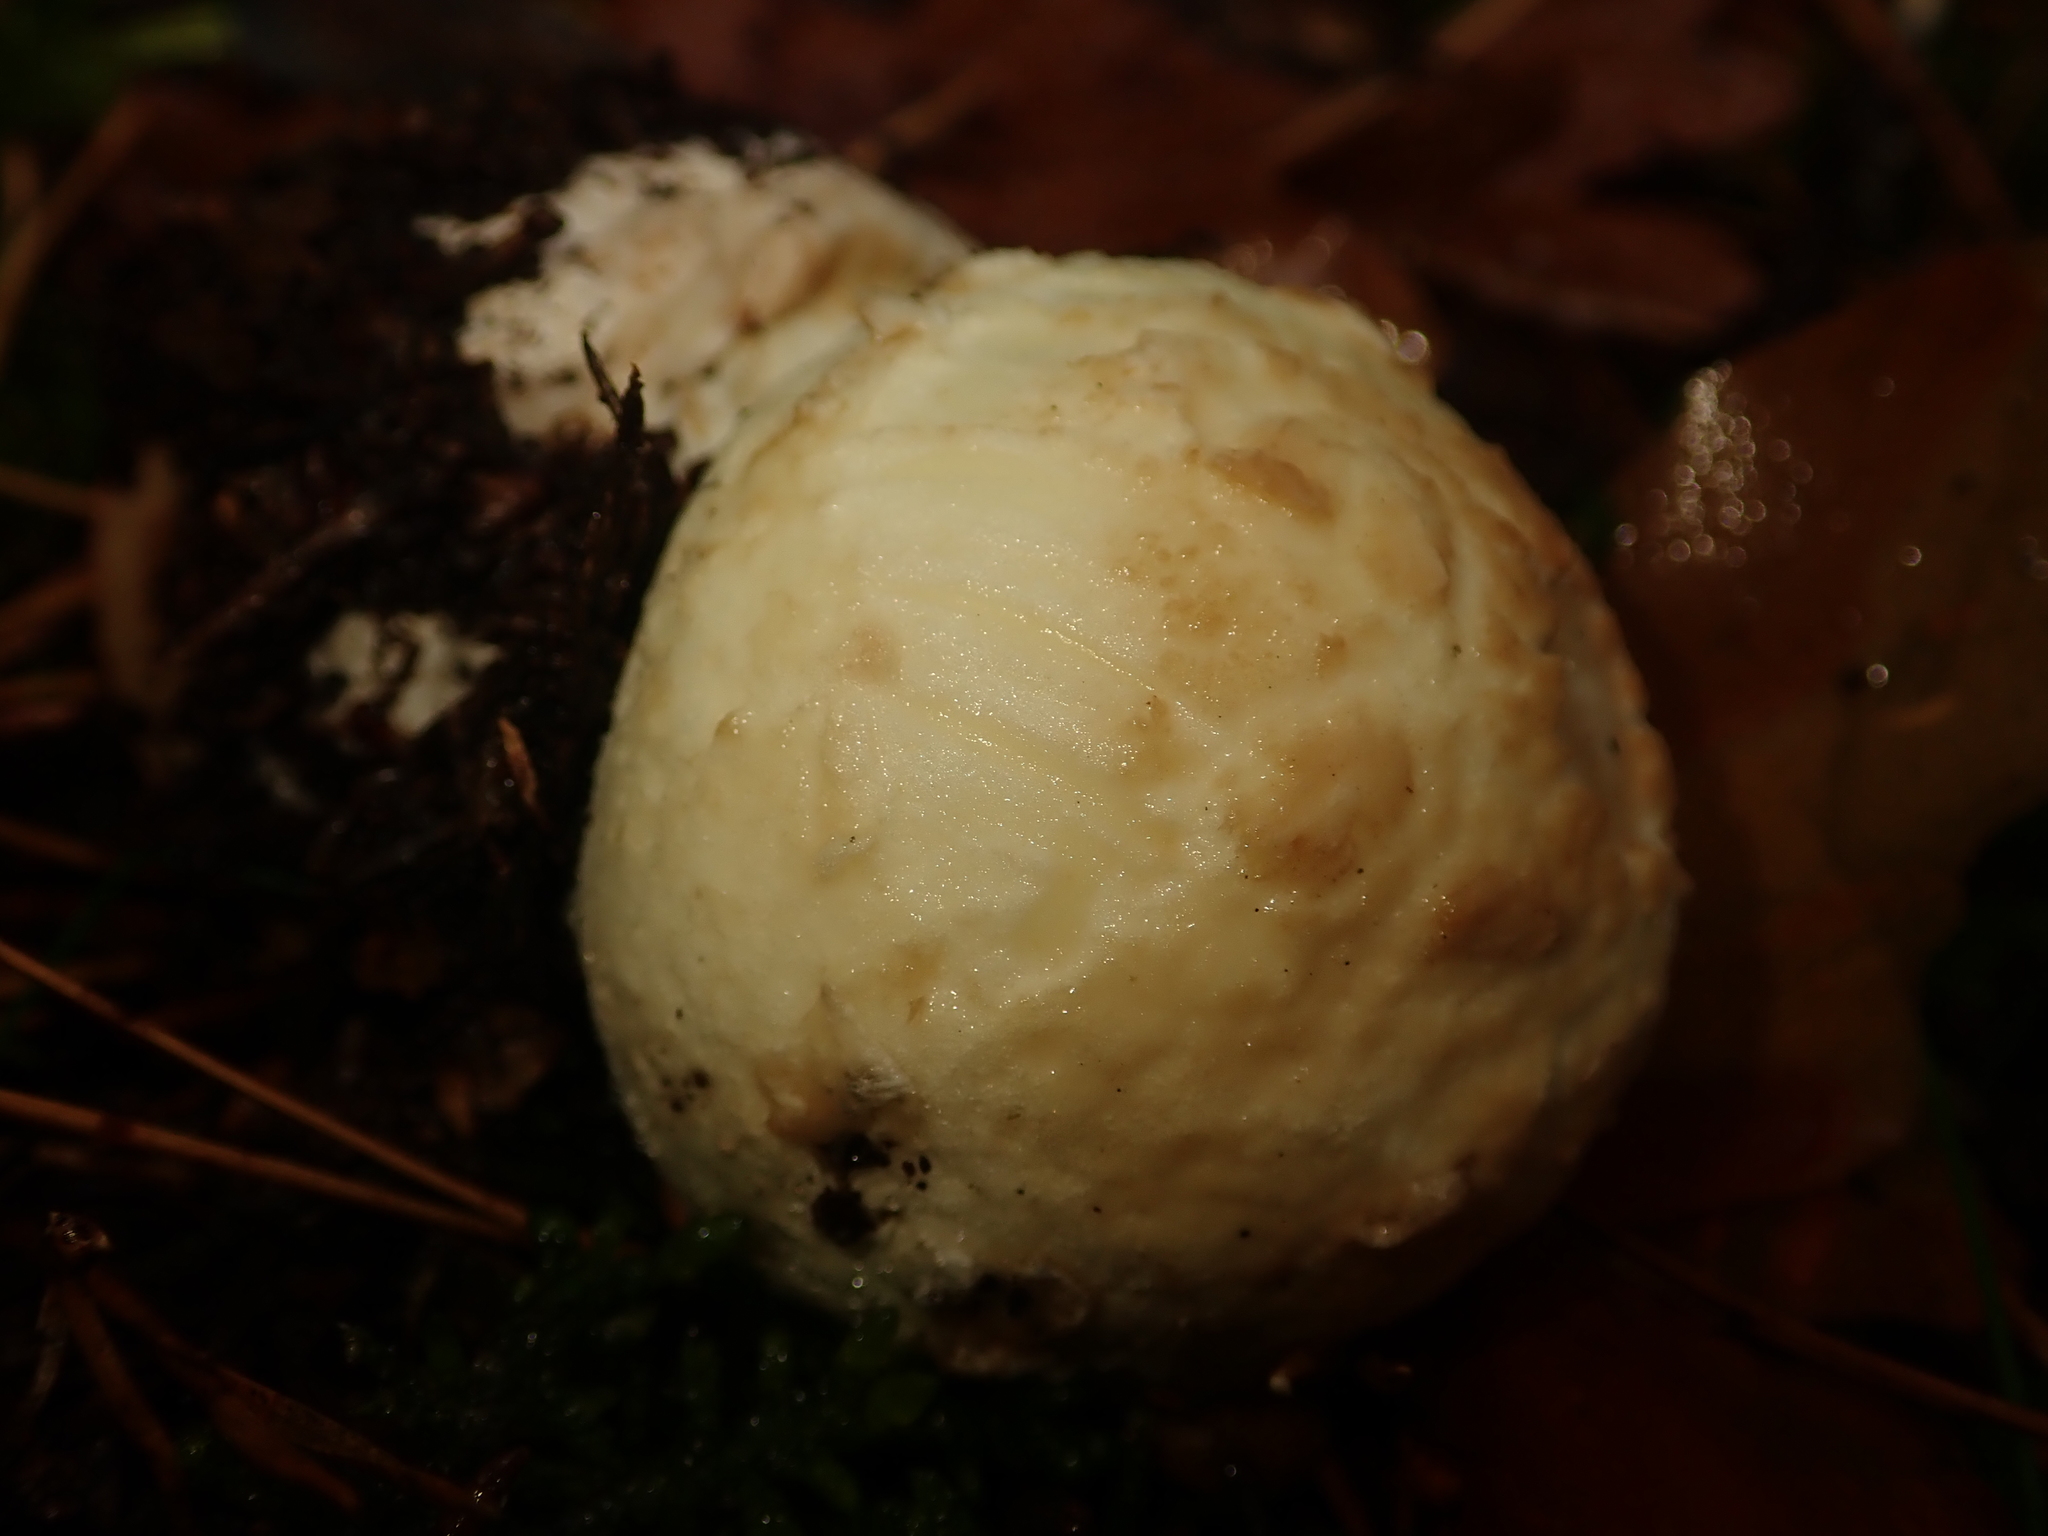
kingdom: Fungi
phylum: Basidiomycota
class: Agaricomycetes
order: Agaricales
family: Amanitaceae
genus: Amanita
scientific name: Amanita citrina
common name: False death-cap
